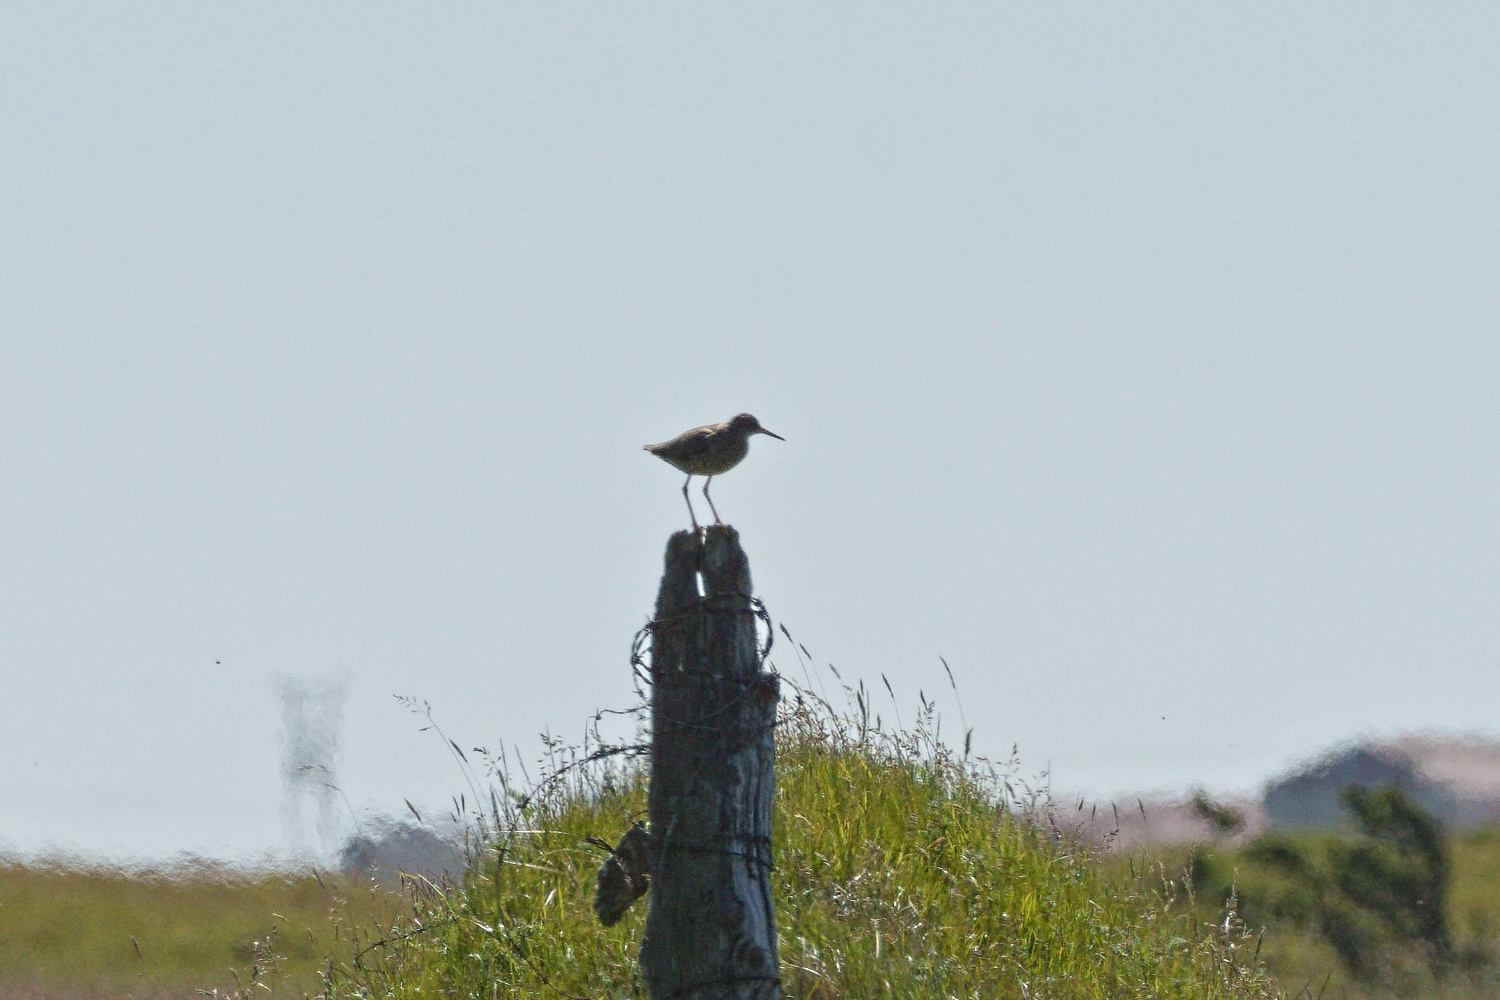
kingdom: Animalia
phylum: Chordata
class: Aves
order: Charadriiformes
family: Scolopacidae
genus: Tringa
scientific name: Tringa totanus
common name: Common redshank
